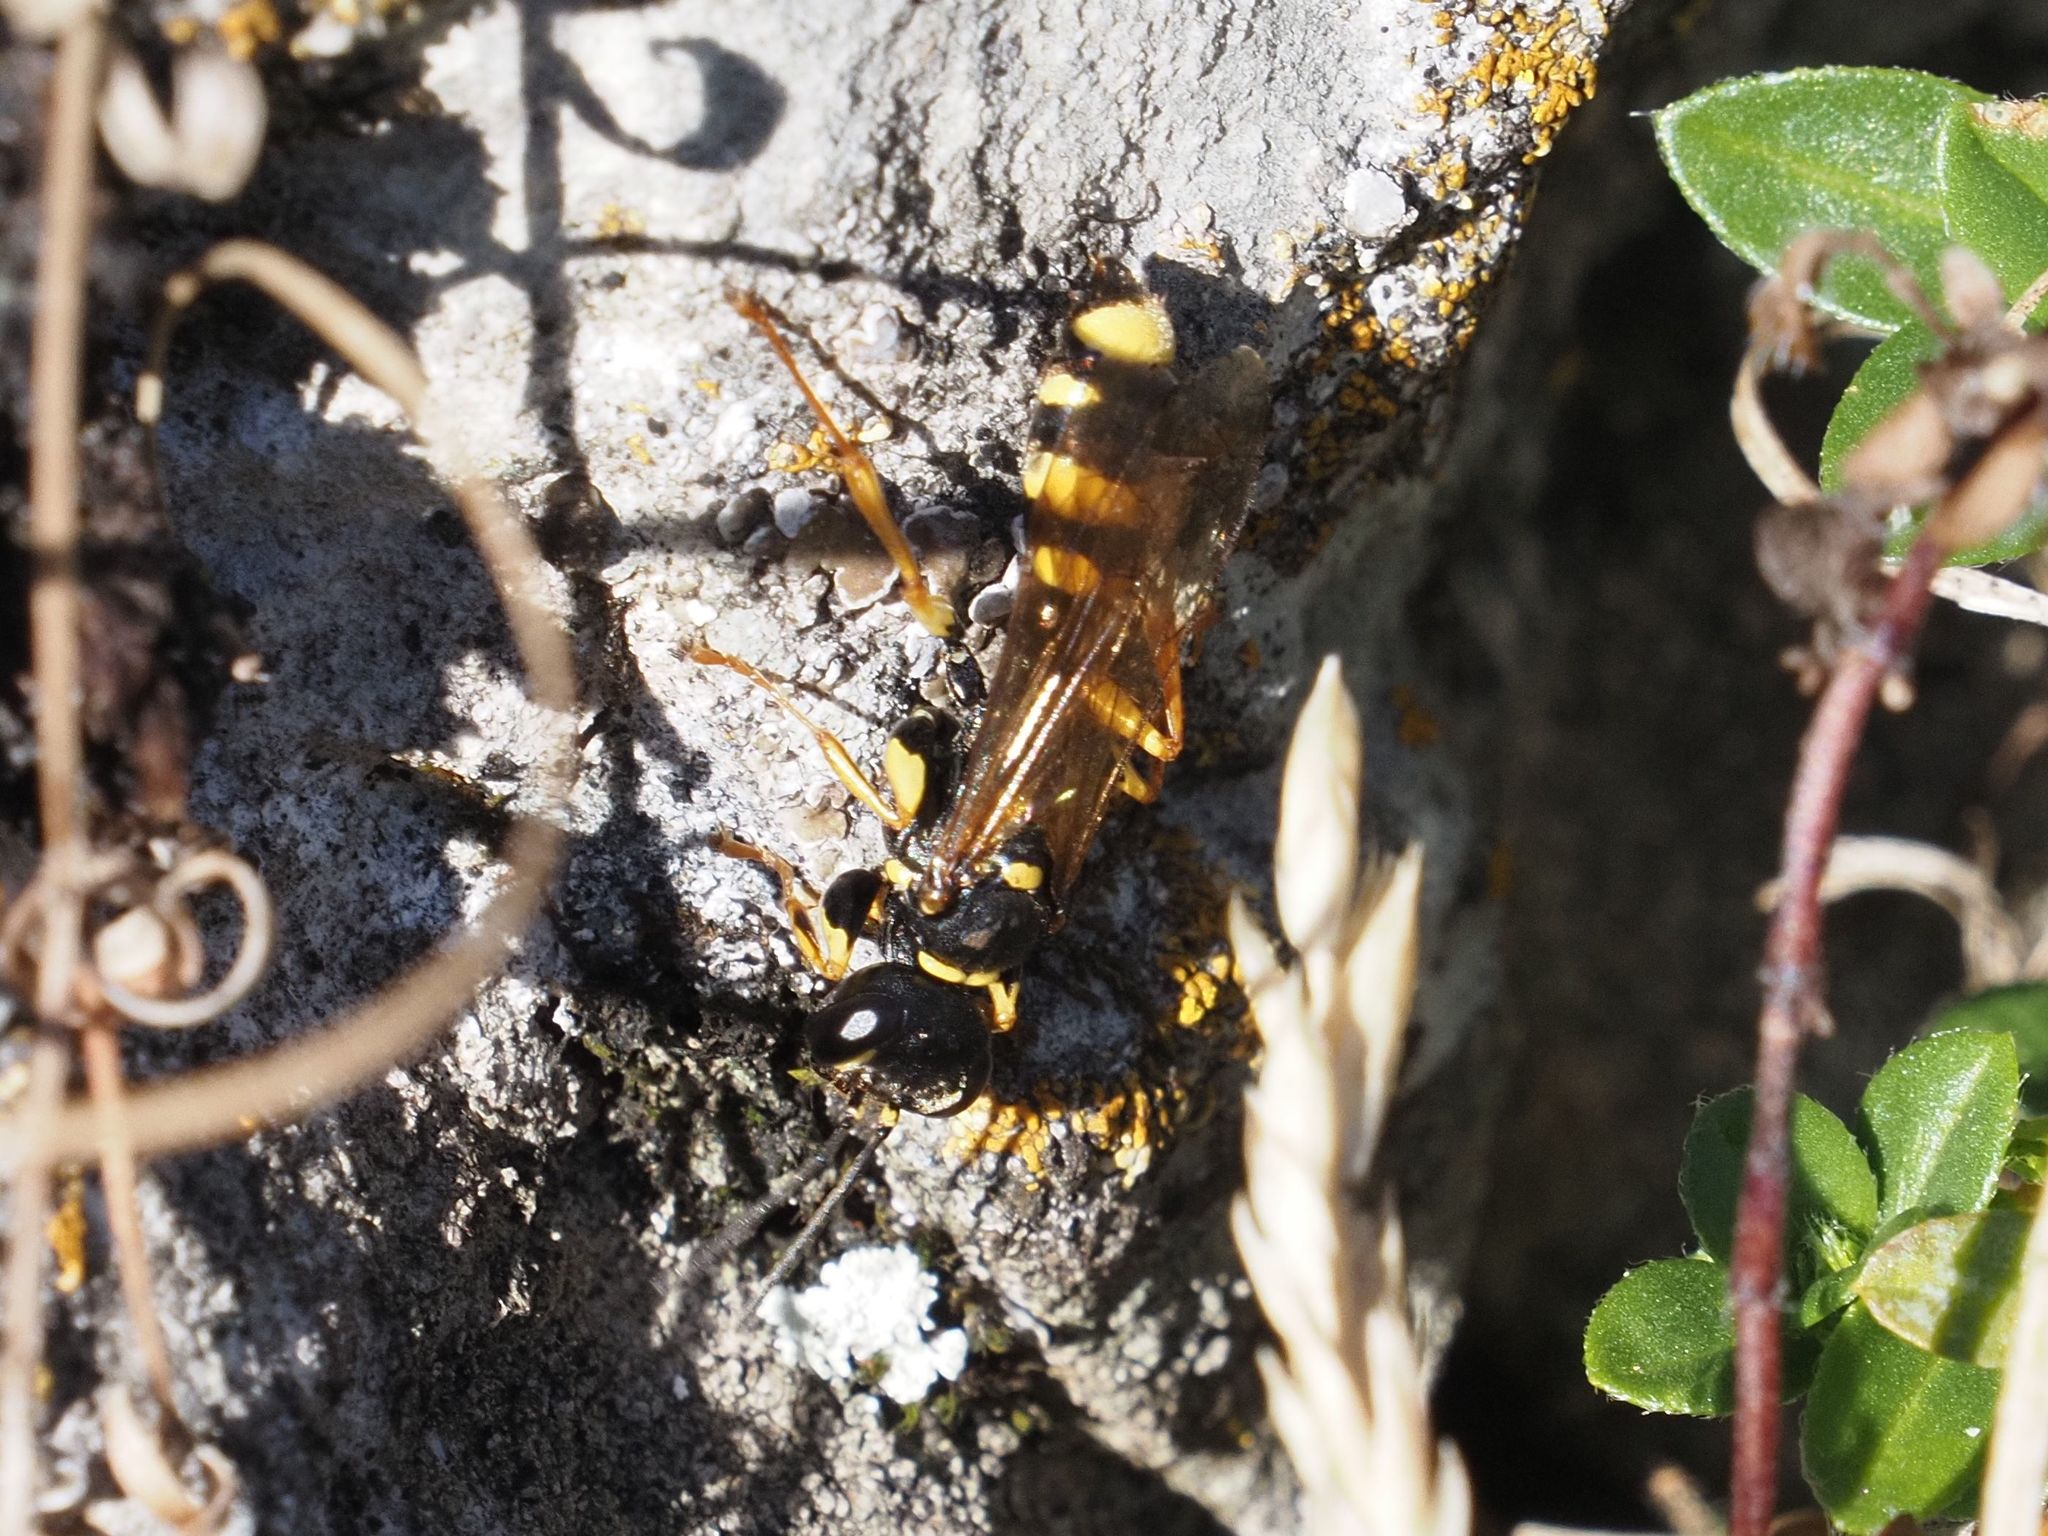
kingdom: Animalia
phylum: Arthropoda
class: Insecta
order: Hymenoptera
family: Crabronidae
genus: Mellinus
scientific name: Mellinus arvensis
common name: Field digger wasp
